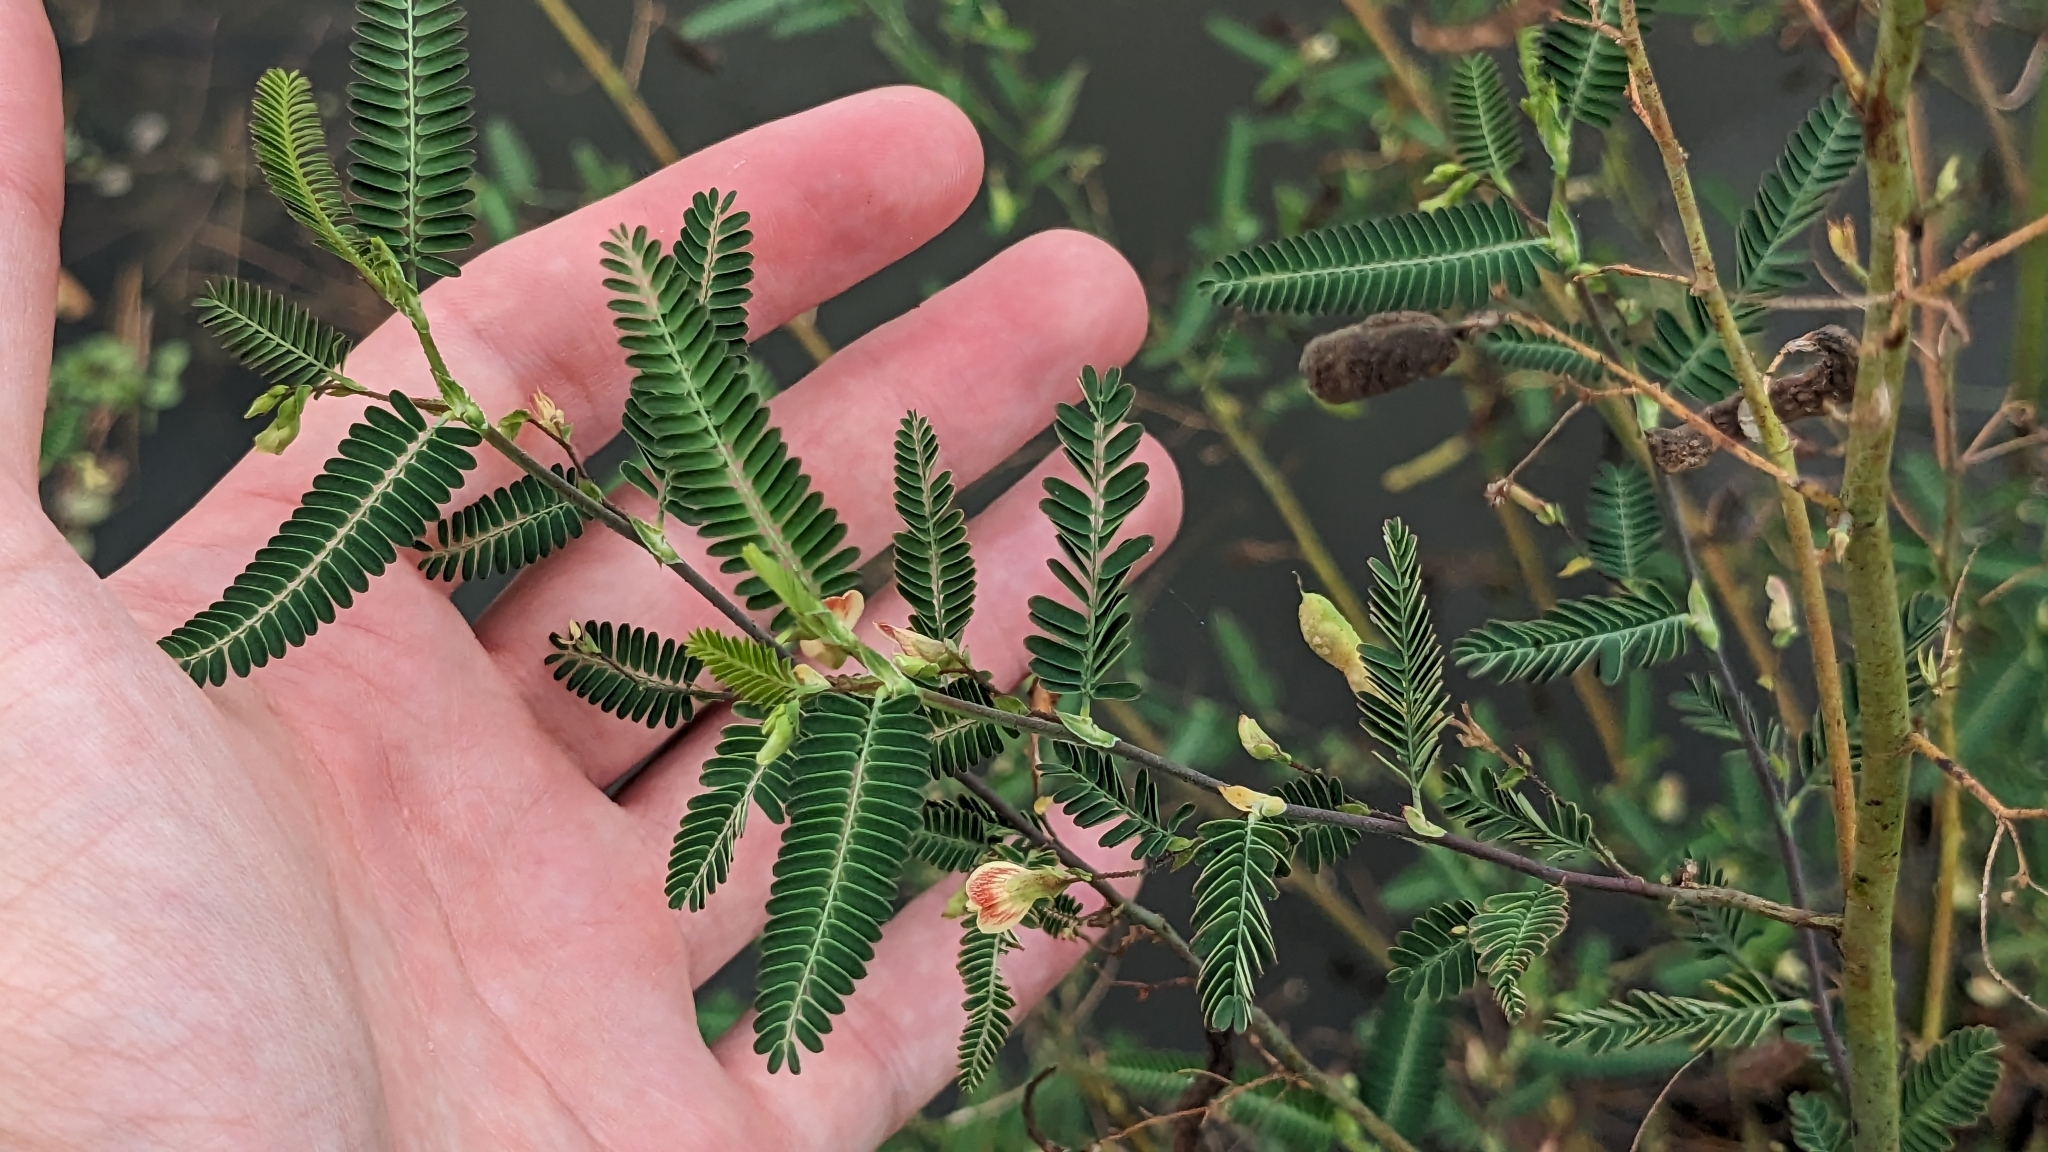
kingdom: Plantae
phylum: Tracheophyta
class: Magnoliopsida
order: Fabales
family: Fabaceae
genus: Aeschynomene
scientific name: Aeschynomene indica
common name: Indian jointvetch
